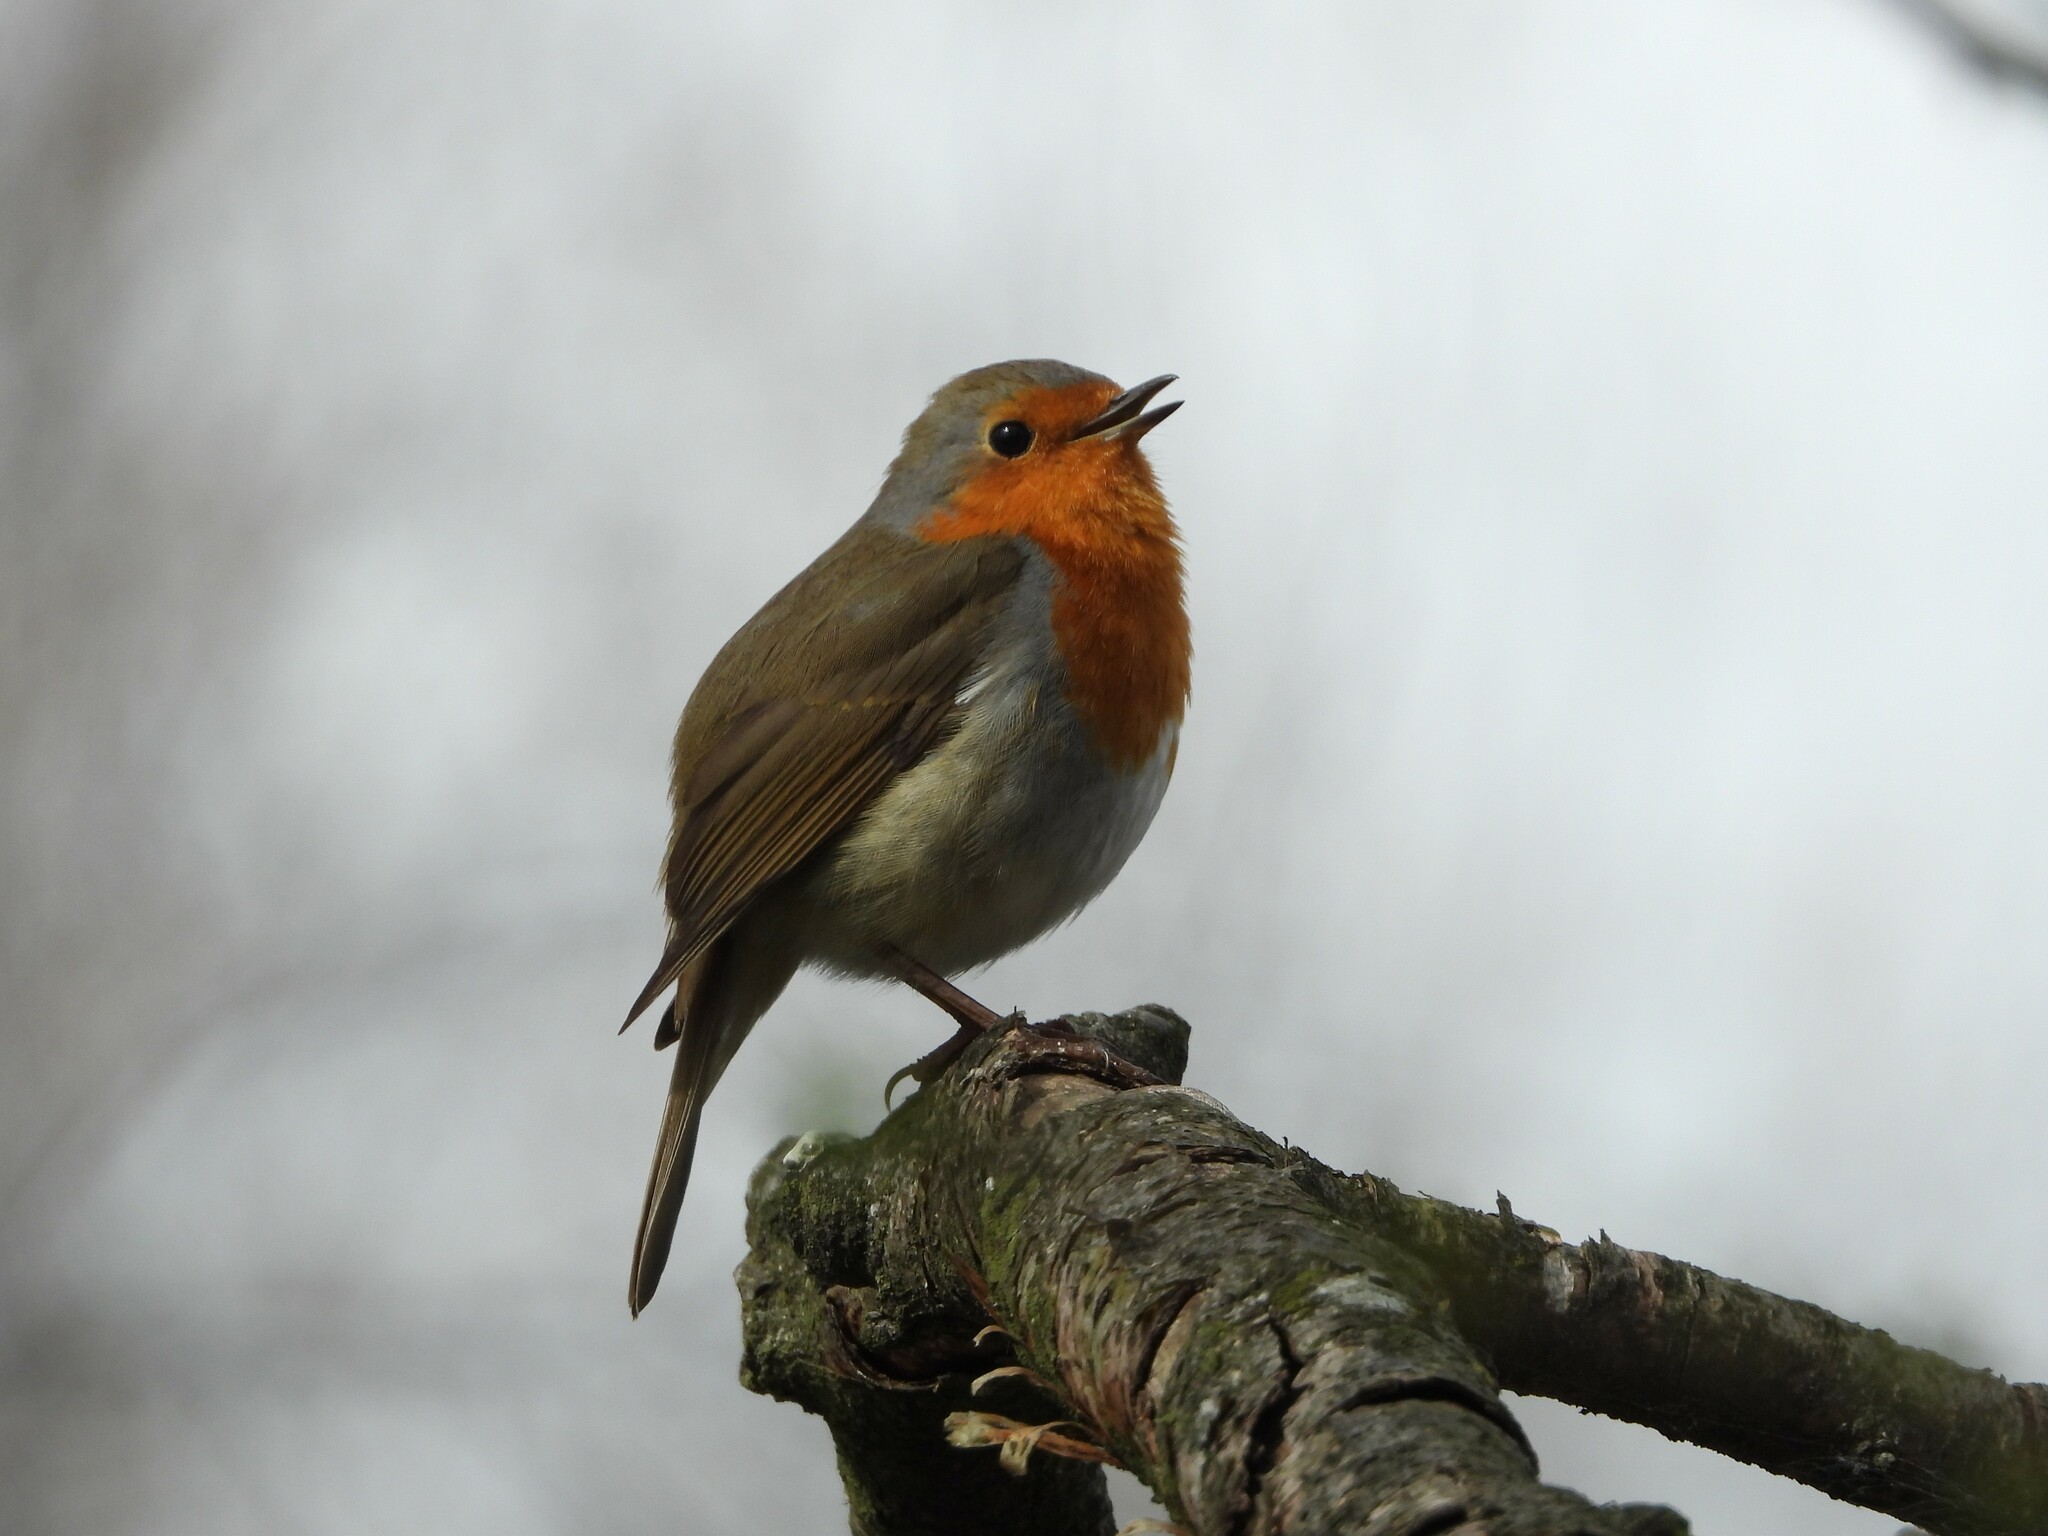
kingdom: Animalia
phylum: Chordata
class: Aves
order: Passeriformes
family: Muscicapidae
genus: Erithacus
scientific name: Erithacus rubecula
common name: European robin
